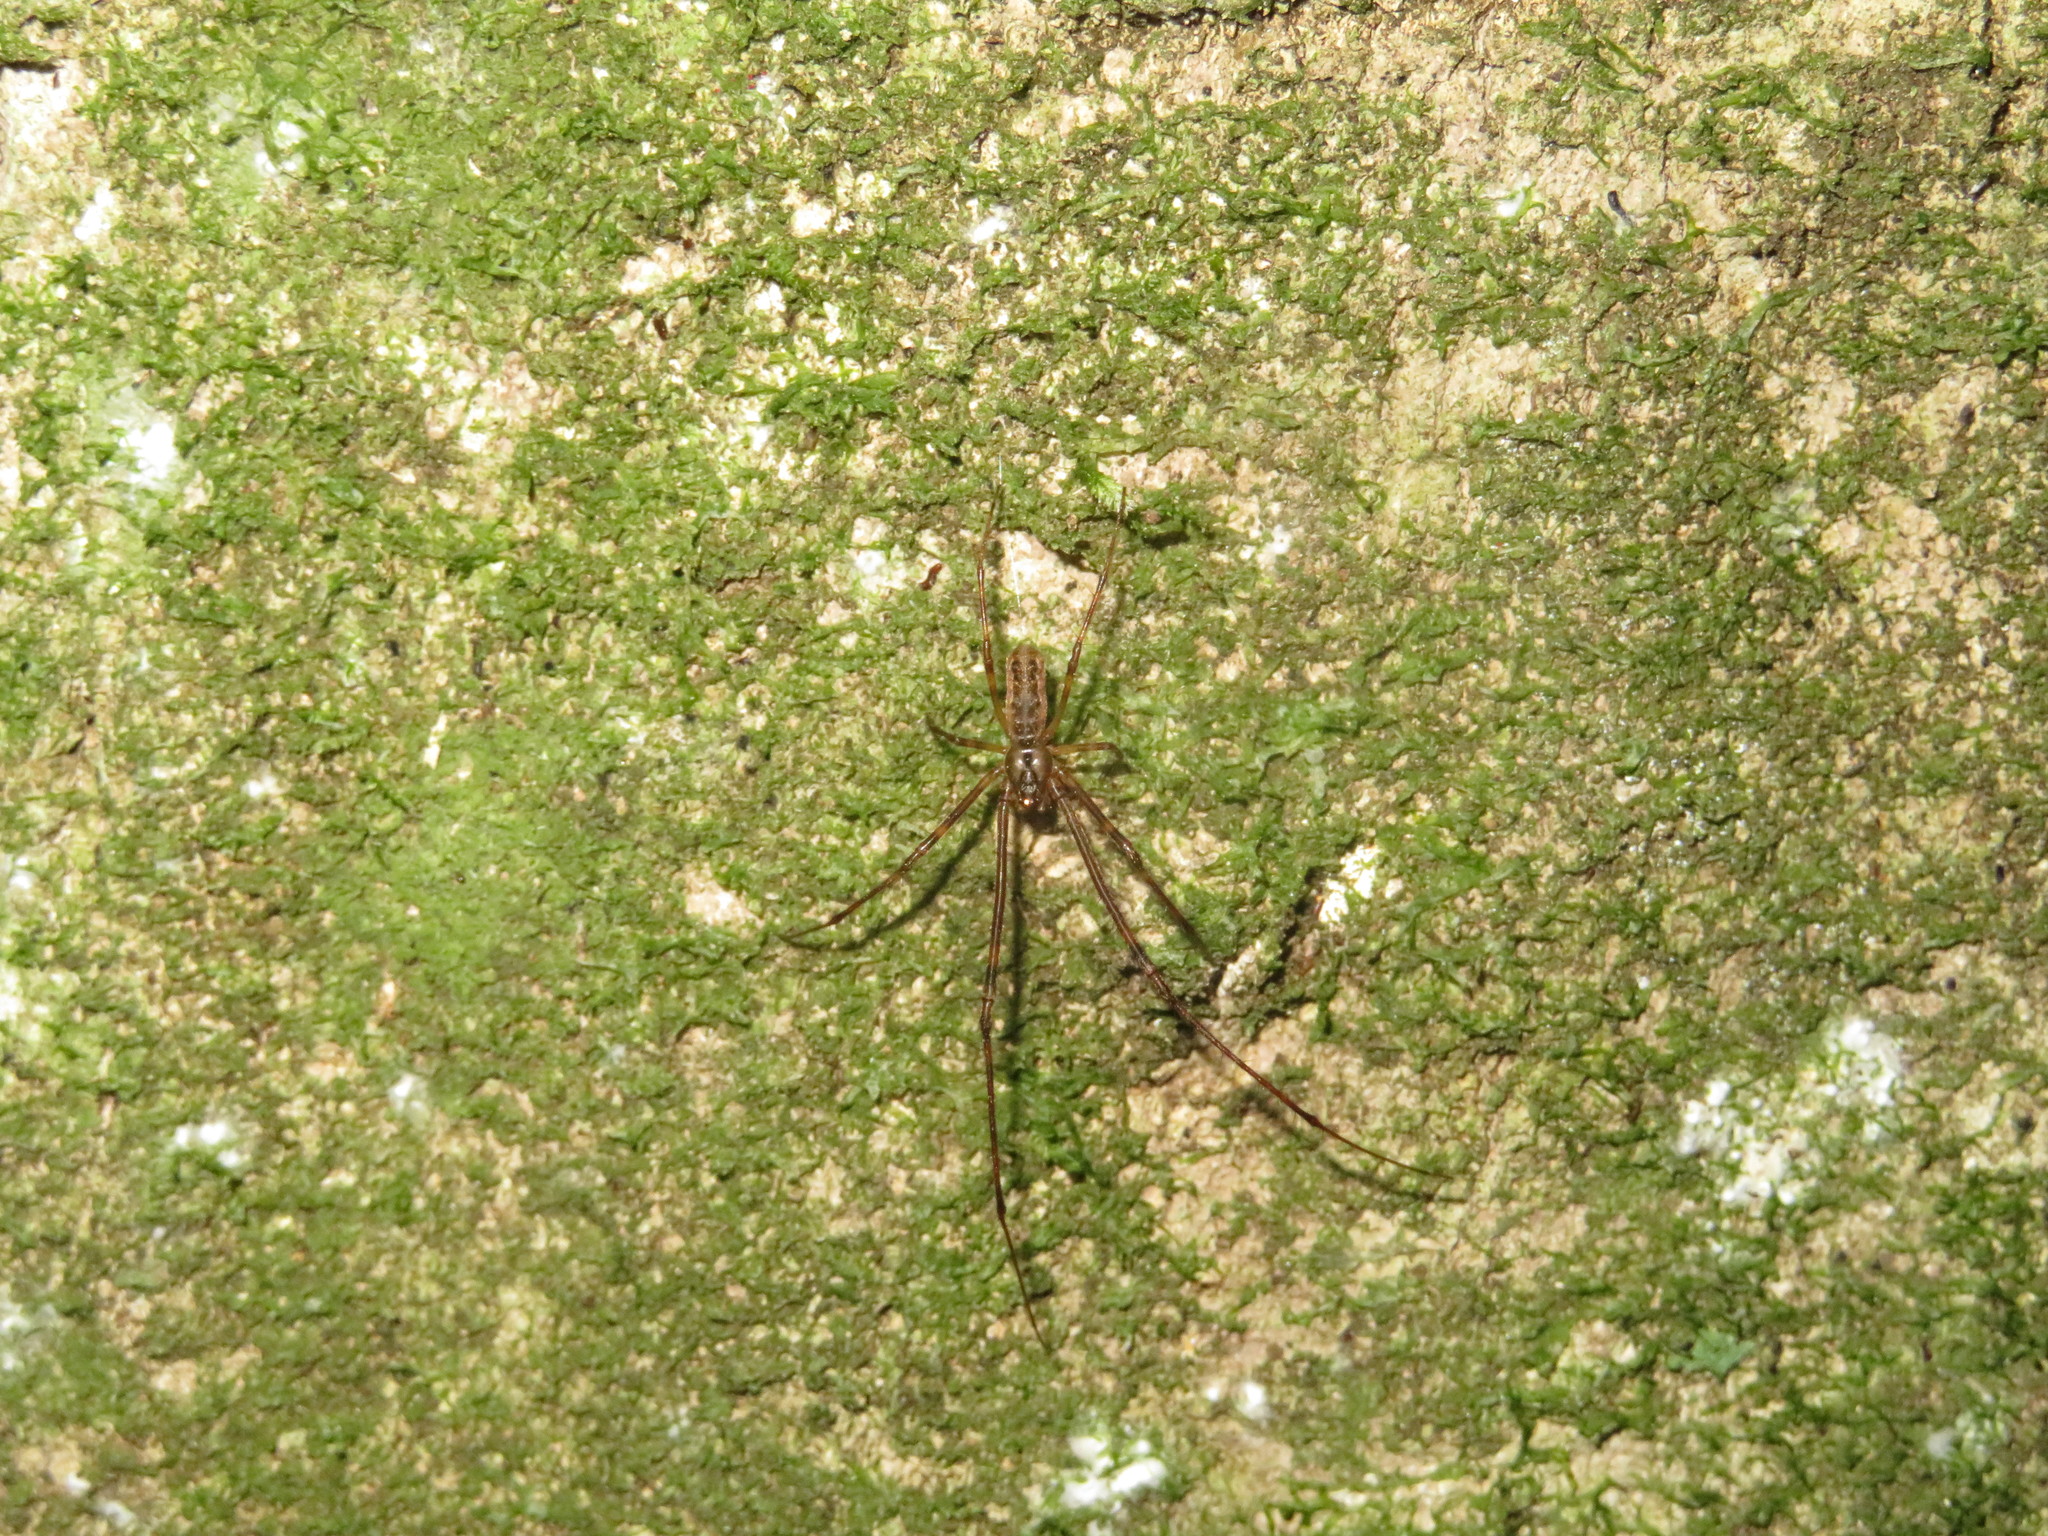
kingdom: Animalia
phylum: Arthropoda
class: Arachnida
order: Araneae
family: Tetragnathidae
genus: Nanometa
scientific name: Nanometa lagenifera
